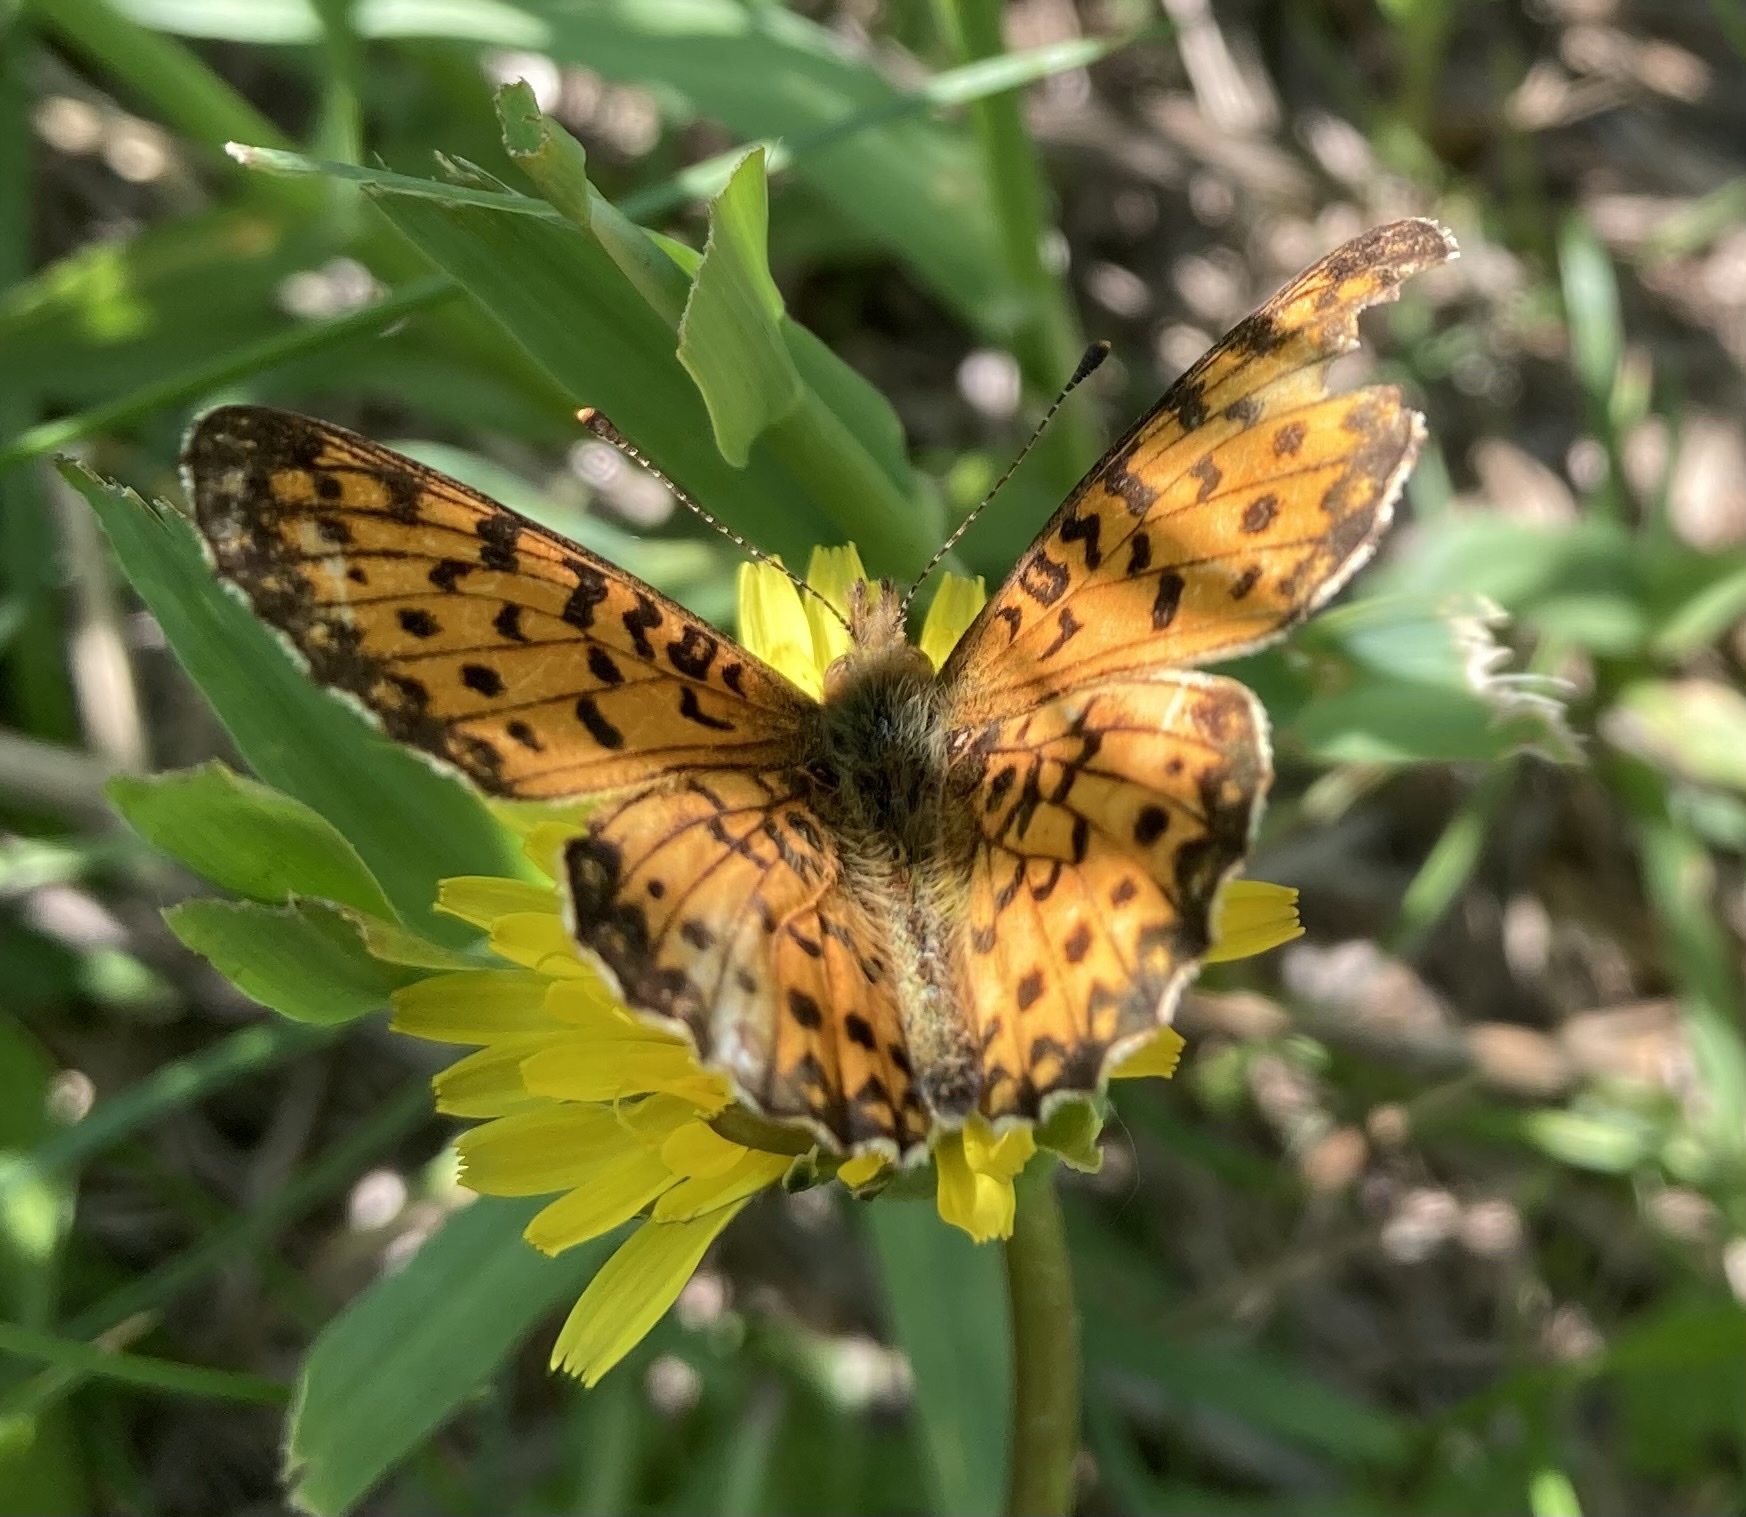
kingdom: Animalia
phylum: Arthropoda
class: Insecta
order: Lepidoptera
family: Nymphalidae
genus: Boloria
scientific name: Boloria
